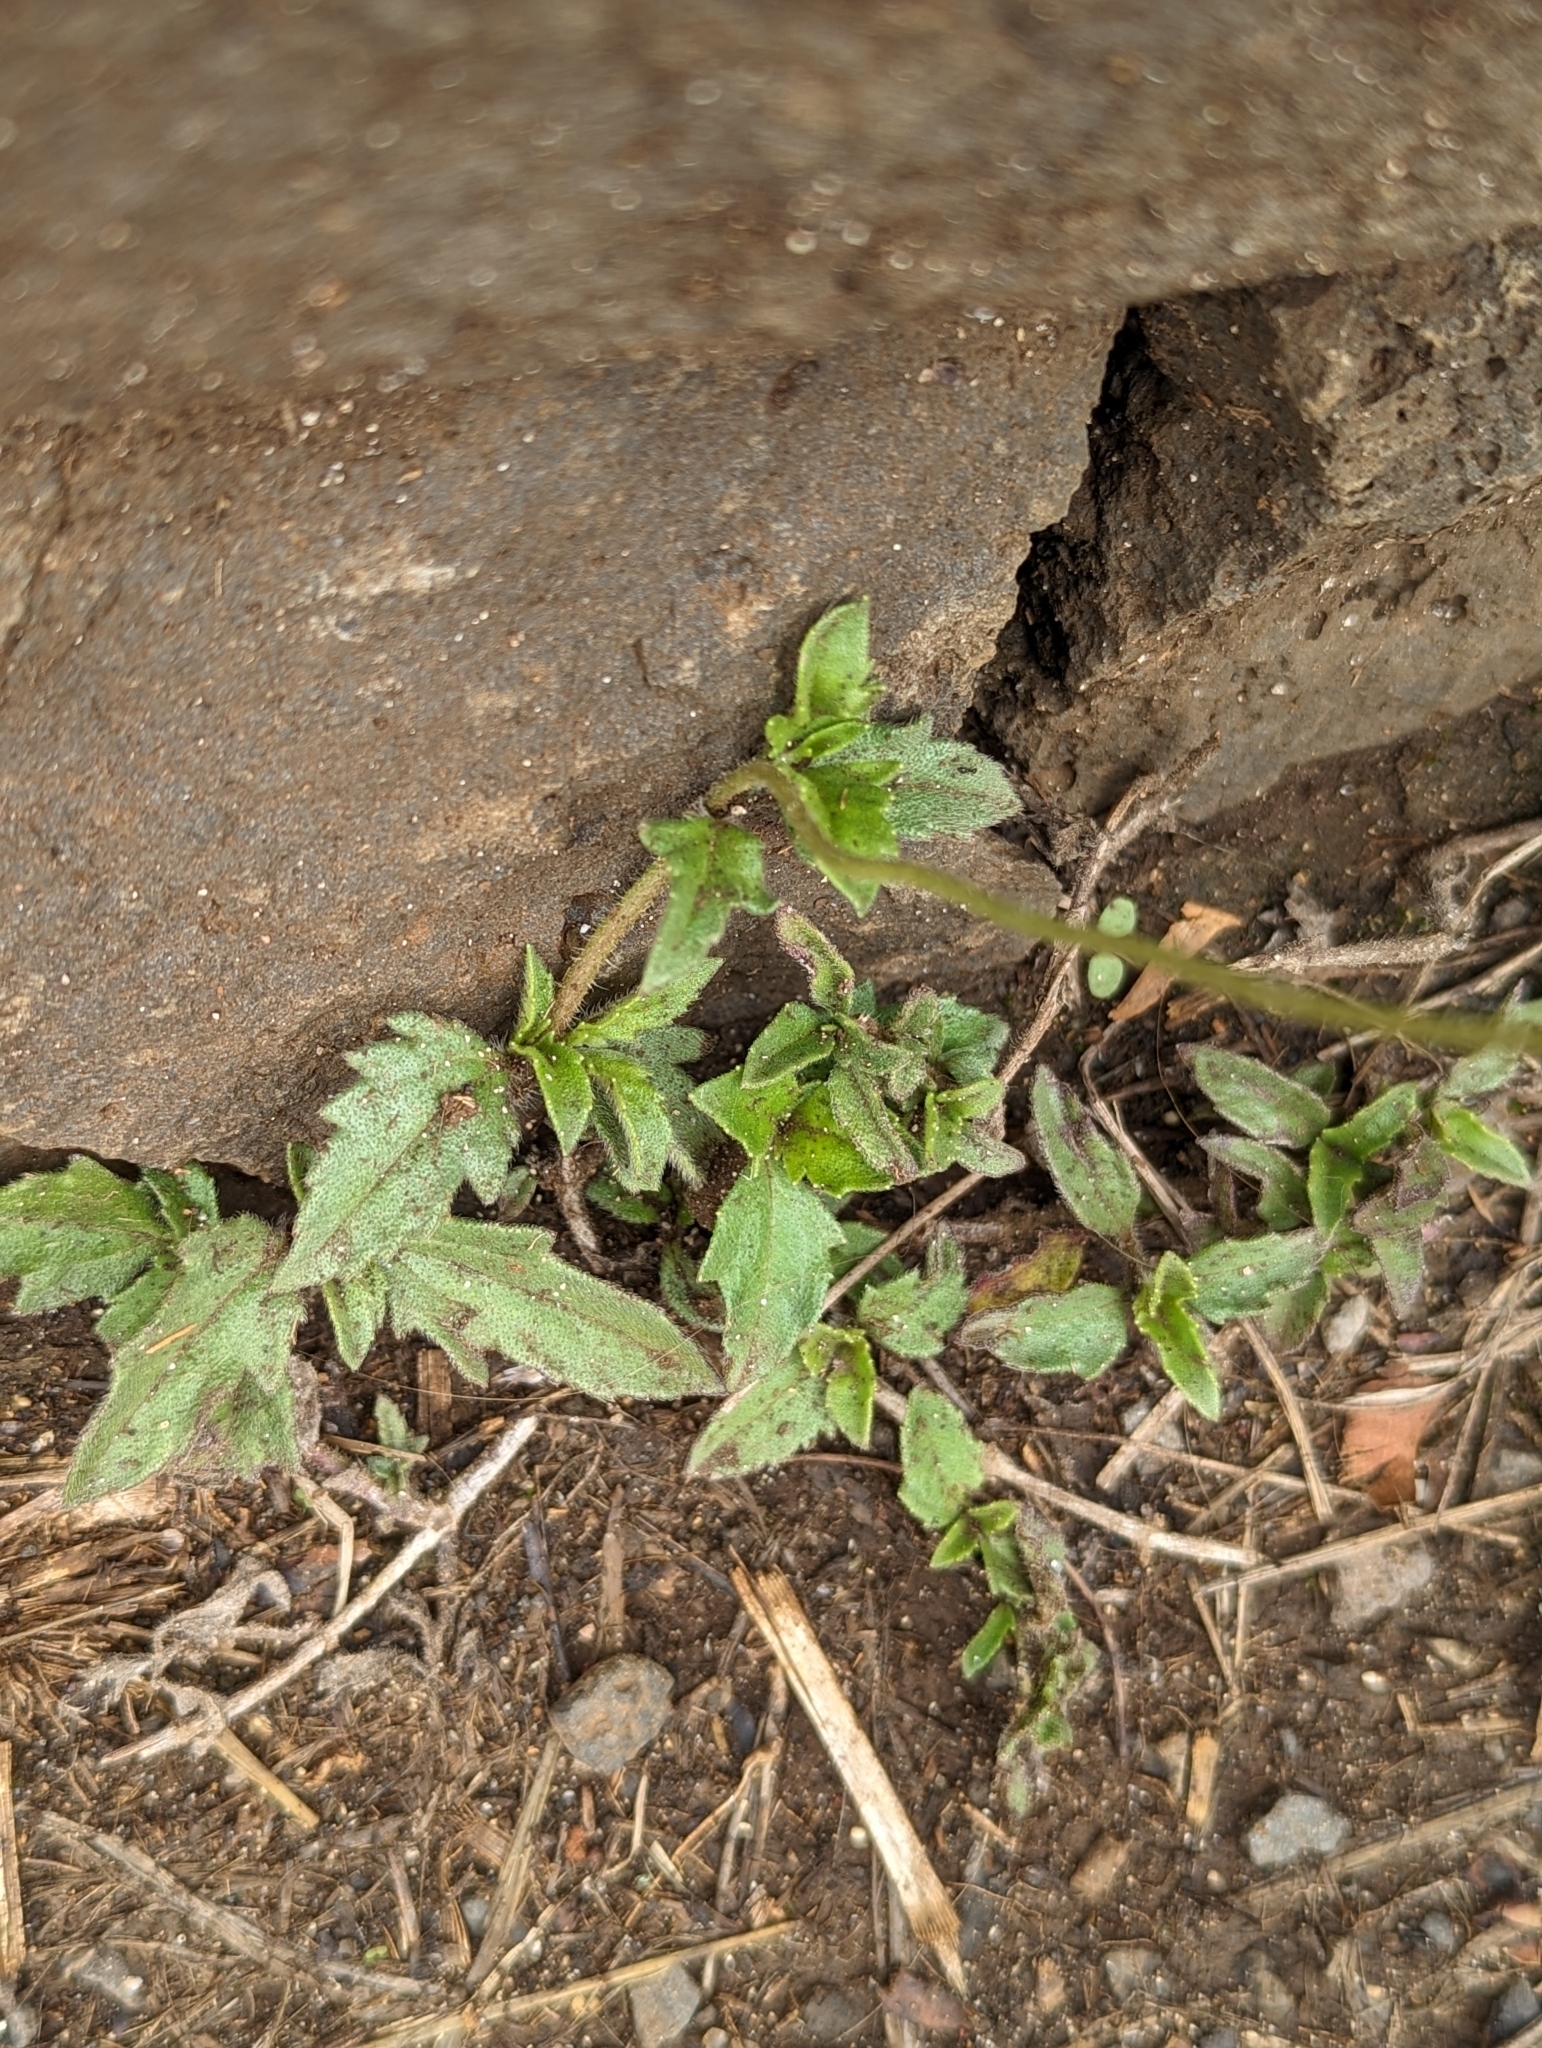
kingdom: Plantae
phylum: Tracheophyta
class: Magnoliopsida
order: Asterales
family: Asteraceae
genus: Tridax
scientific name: Tridax procumbens
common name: Coatbuttons
